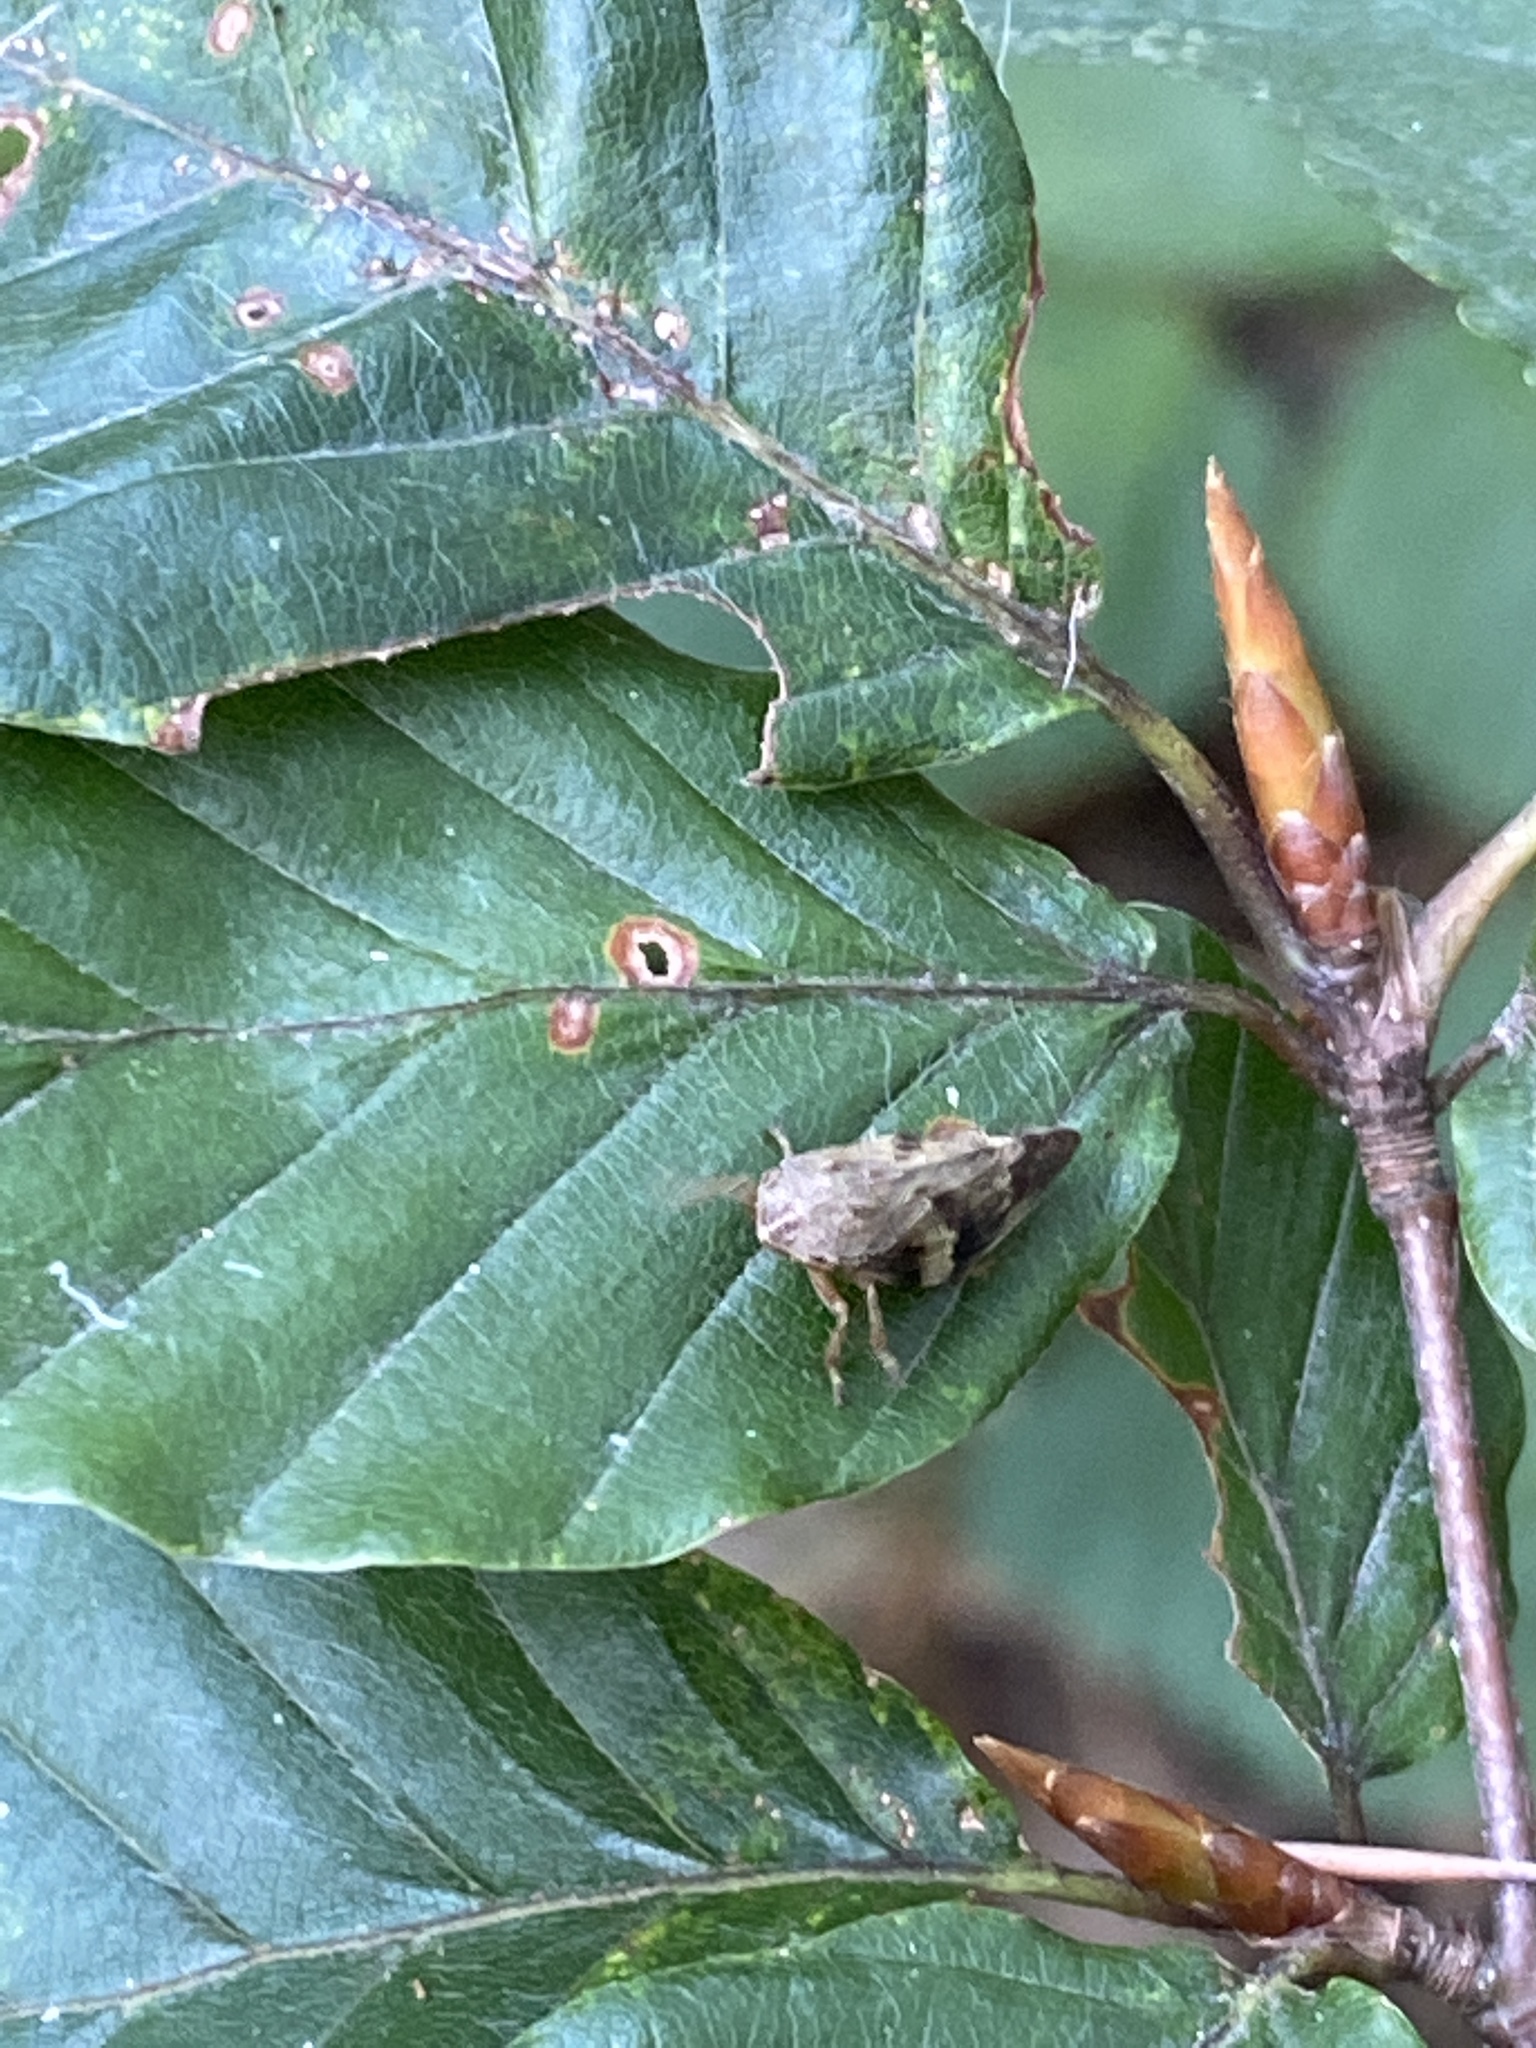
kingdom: Animalia
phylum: Arthropoda
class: Insecta
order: Hemiptera
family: Aphrophoridae
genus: Aphrophora
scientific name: Aphrophora alni
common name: European alder spittlebug
